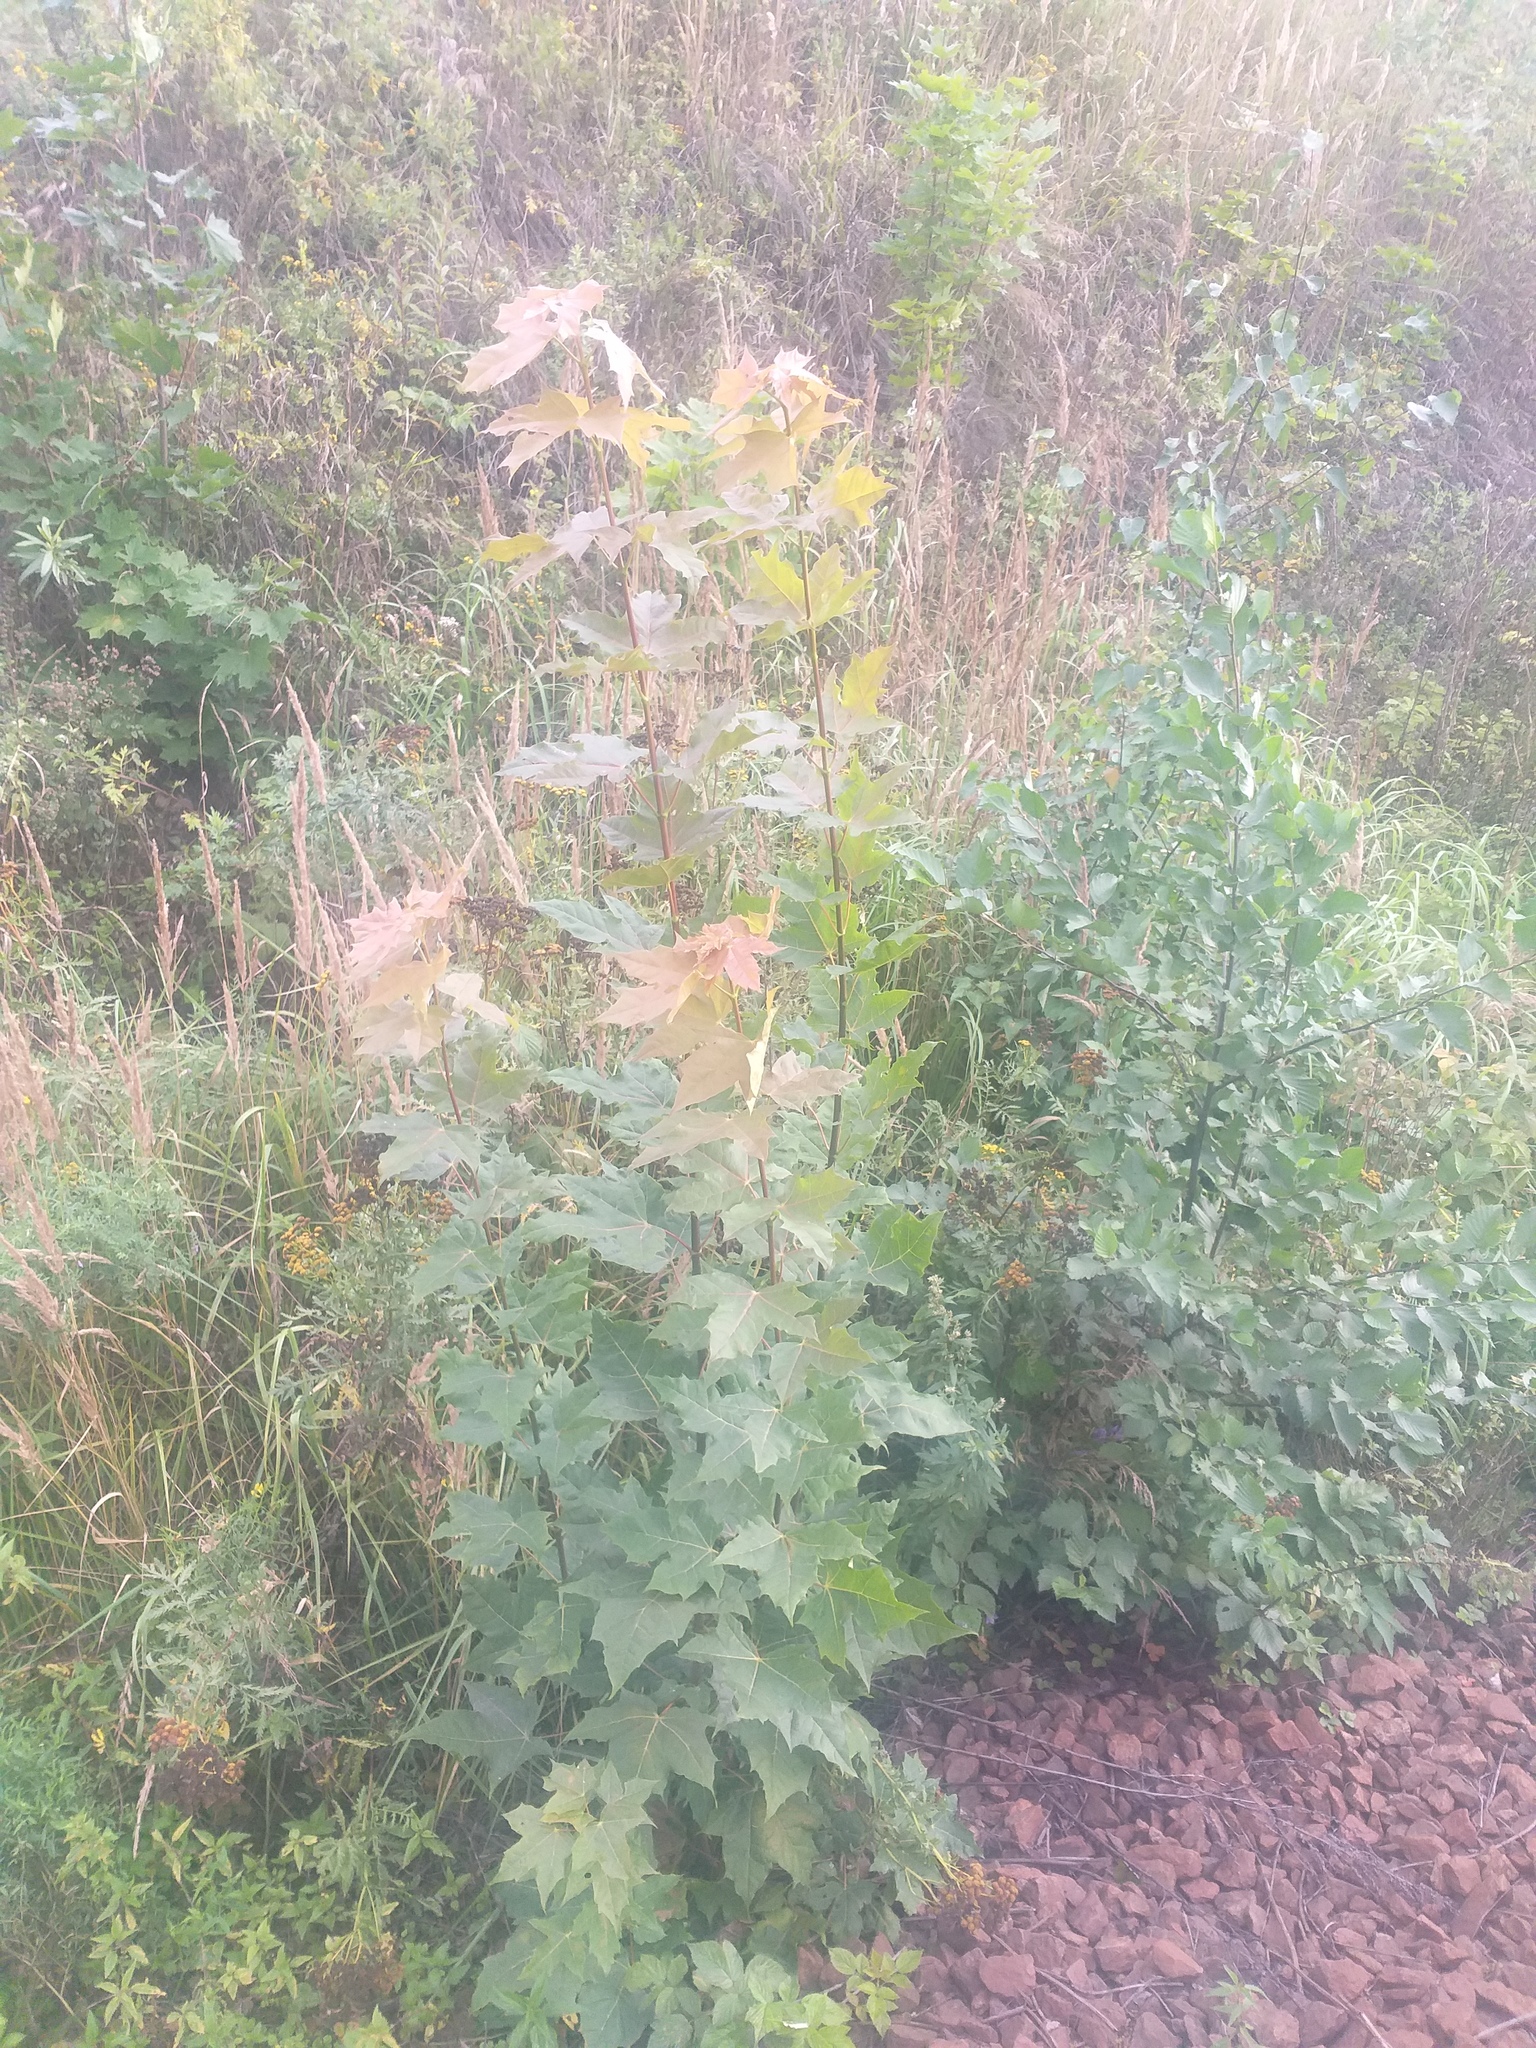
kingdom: Plantae
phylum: Tracheophyta
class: Magnoliopsida
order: Sapindales
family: Sapindaceae
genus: Acer
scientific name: Acer platanoides
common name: Norway maple
